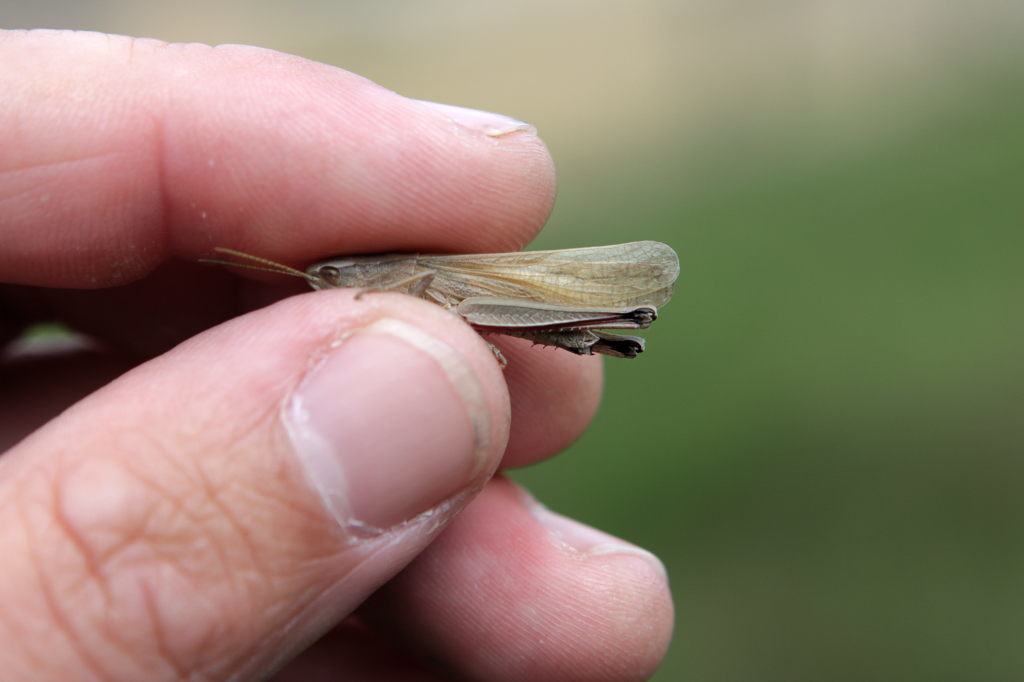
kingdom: Animalia
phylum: Arthropoda
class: Insecta
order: Orthoptera
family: Acrididae
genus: Chrysochraon
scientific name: Chrysochraon dispar
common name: Large gold grasshopper
